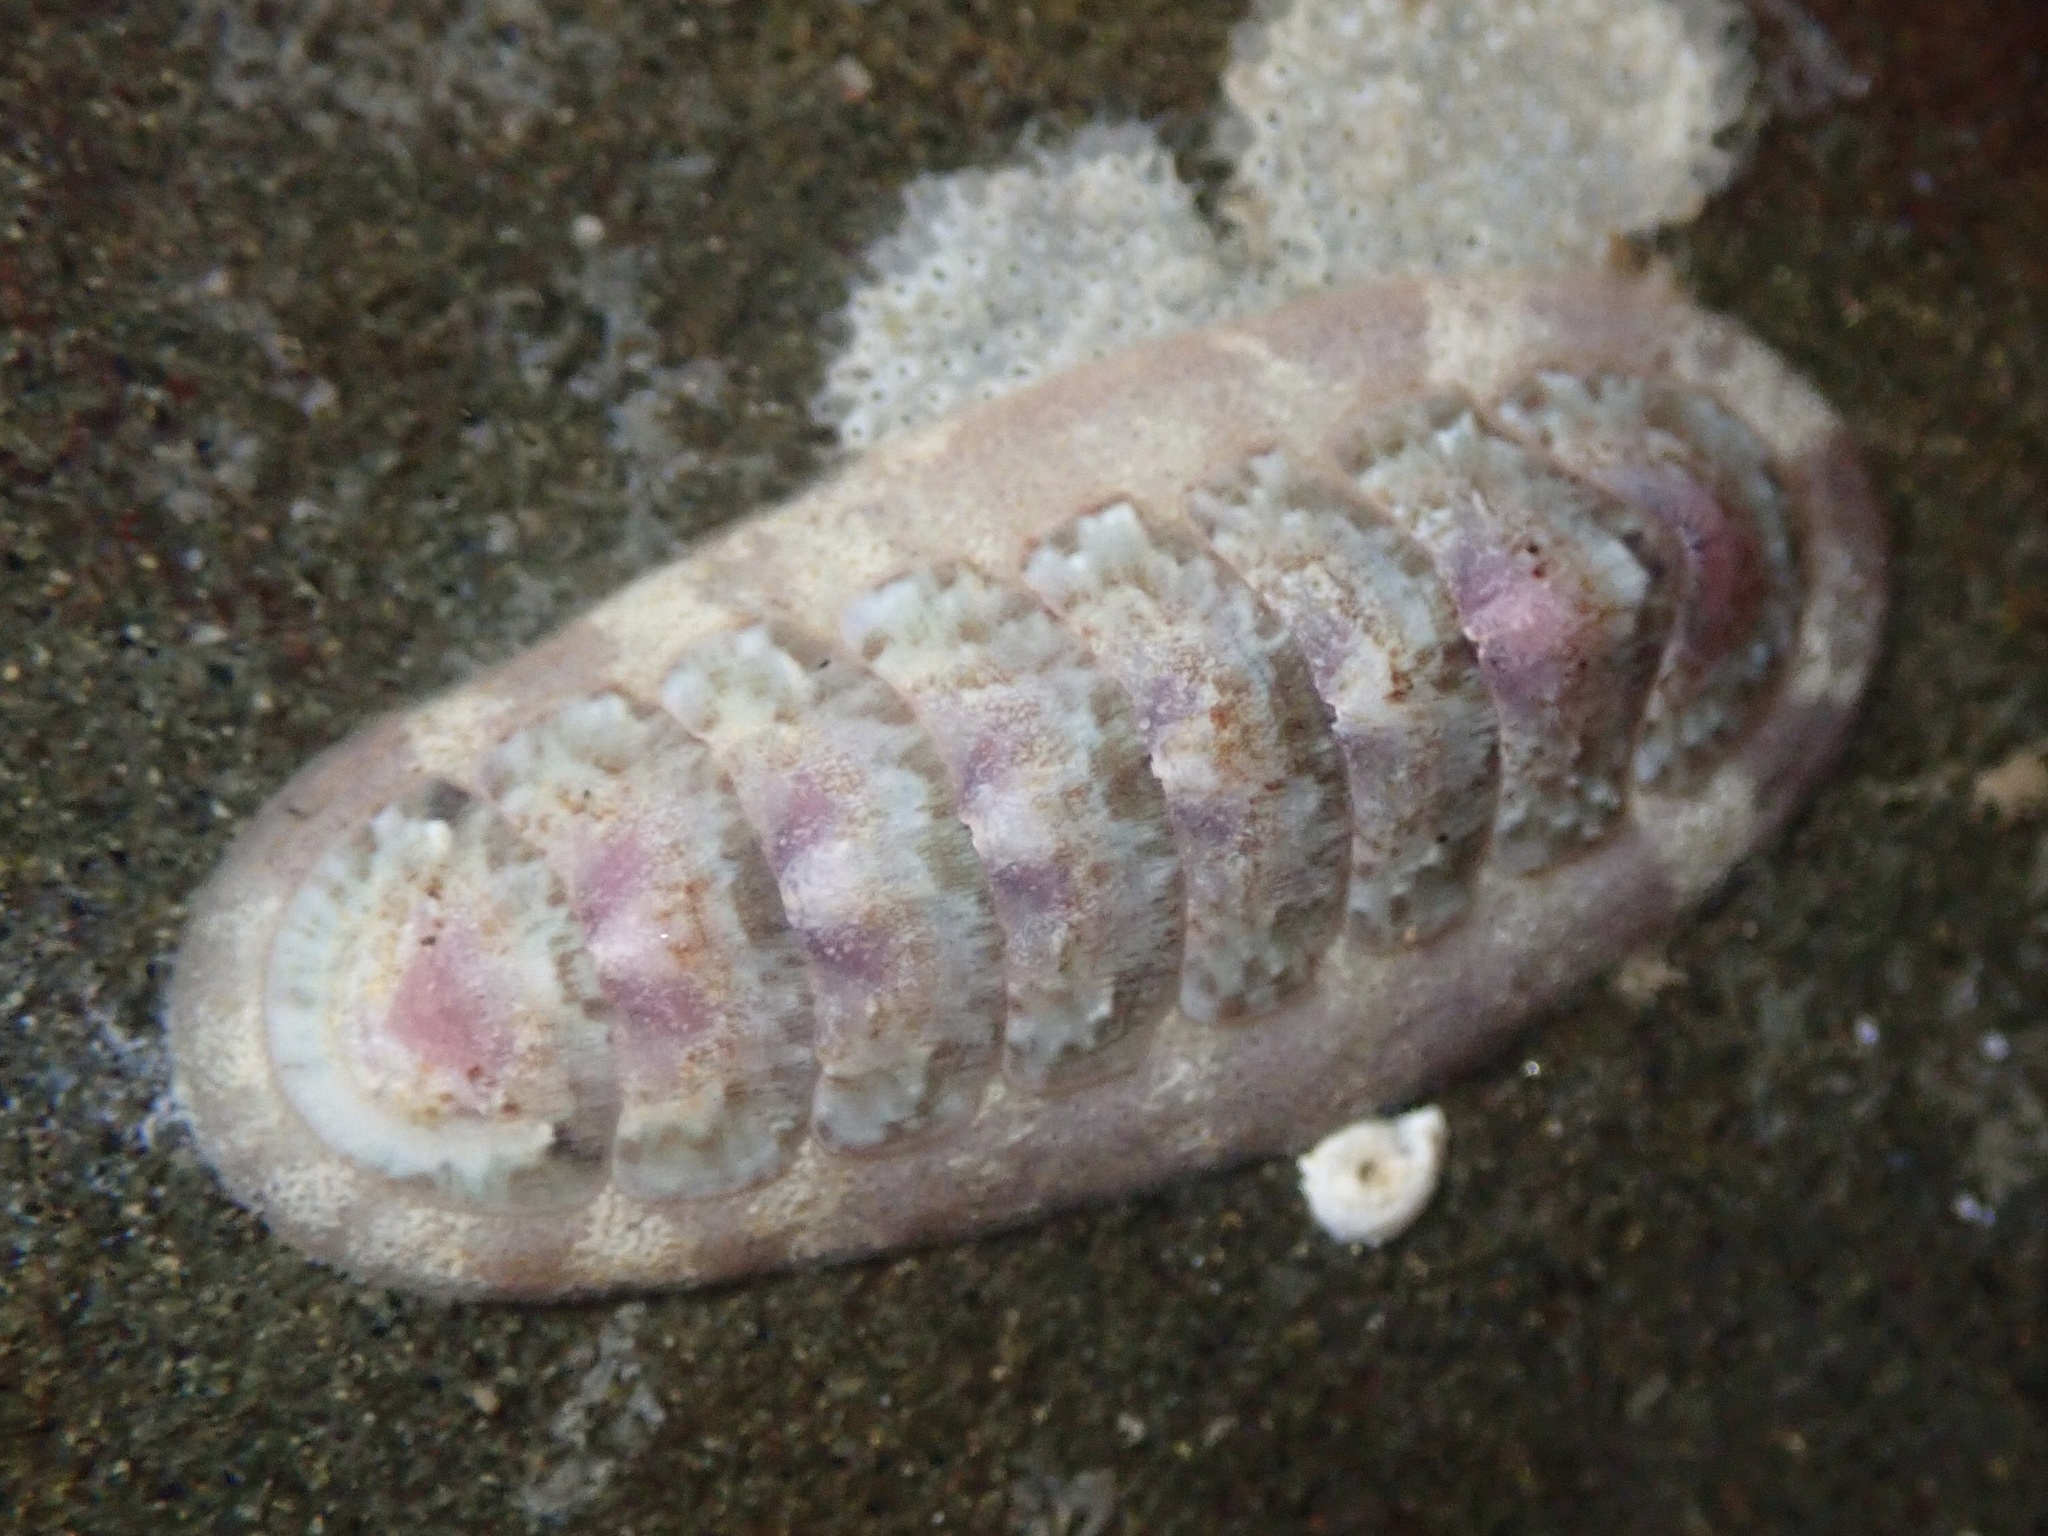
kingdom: Animalia
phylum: Mollusca
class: Polyplacophora
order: Chitonida
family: Ischnochitonidae
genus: Stenoplax
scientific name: Stenoplax heathiana
